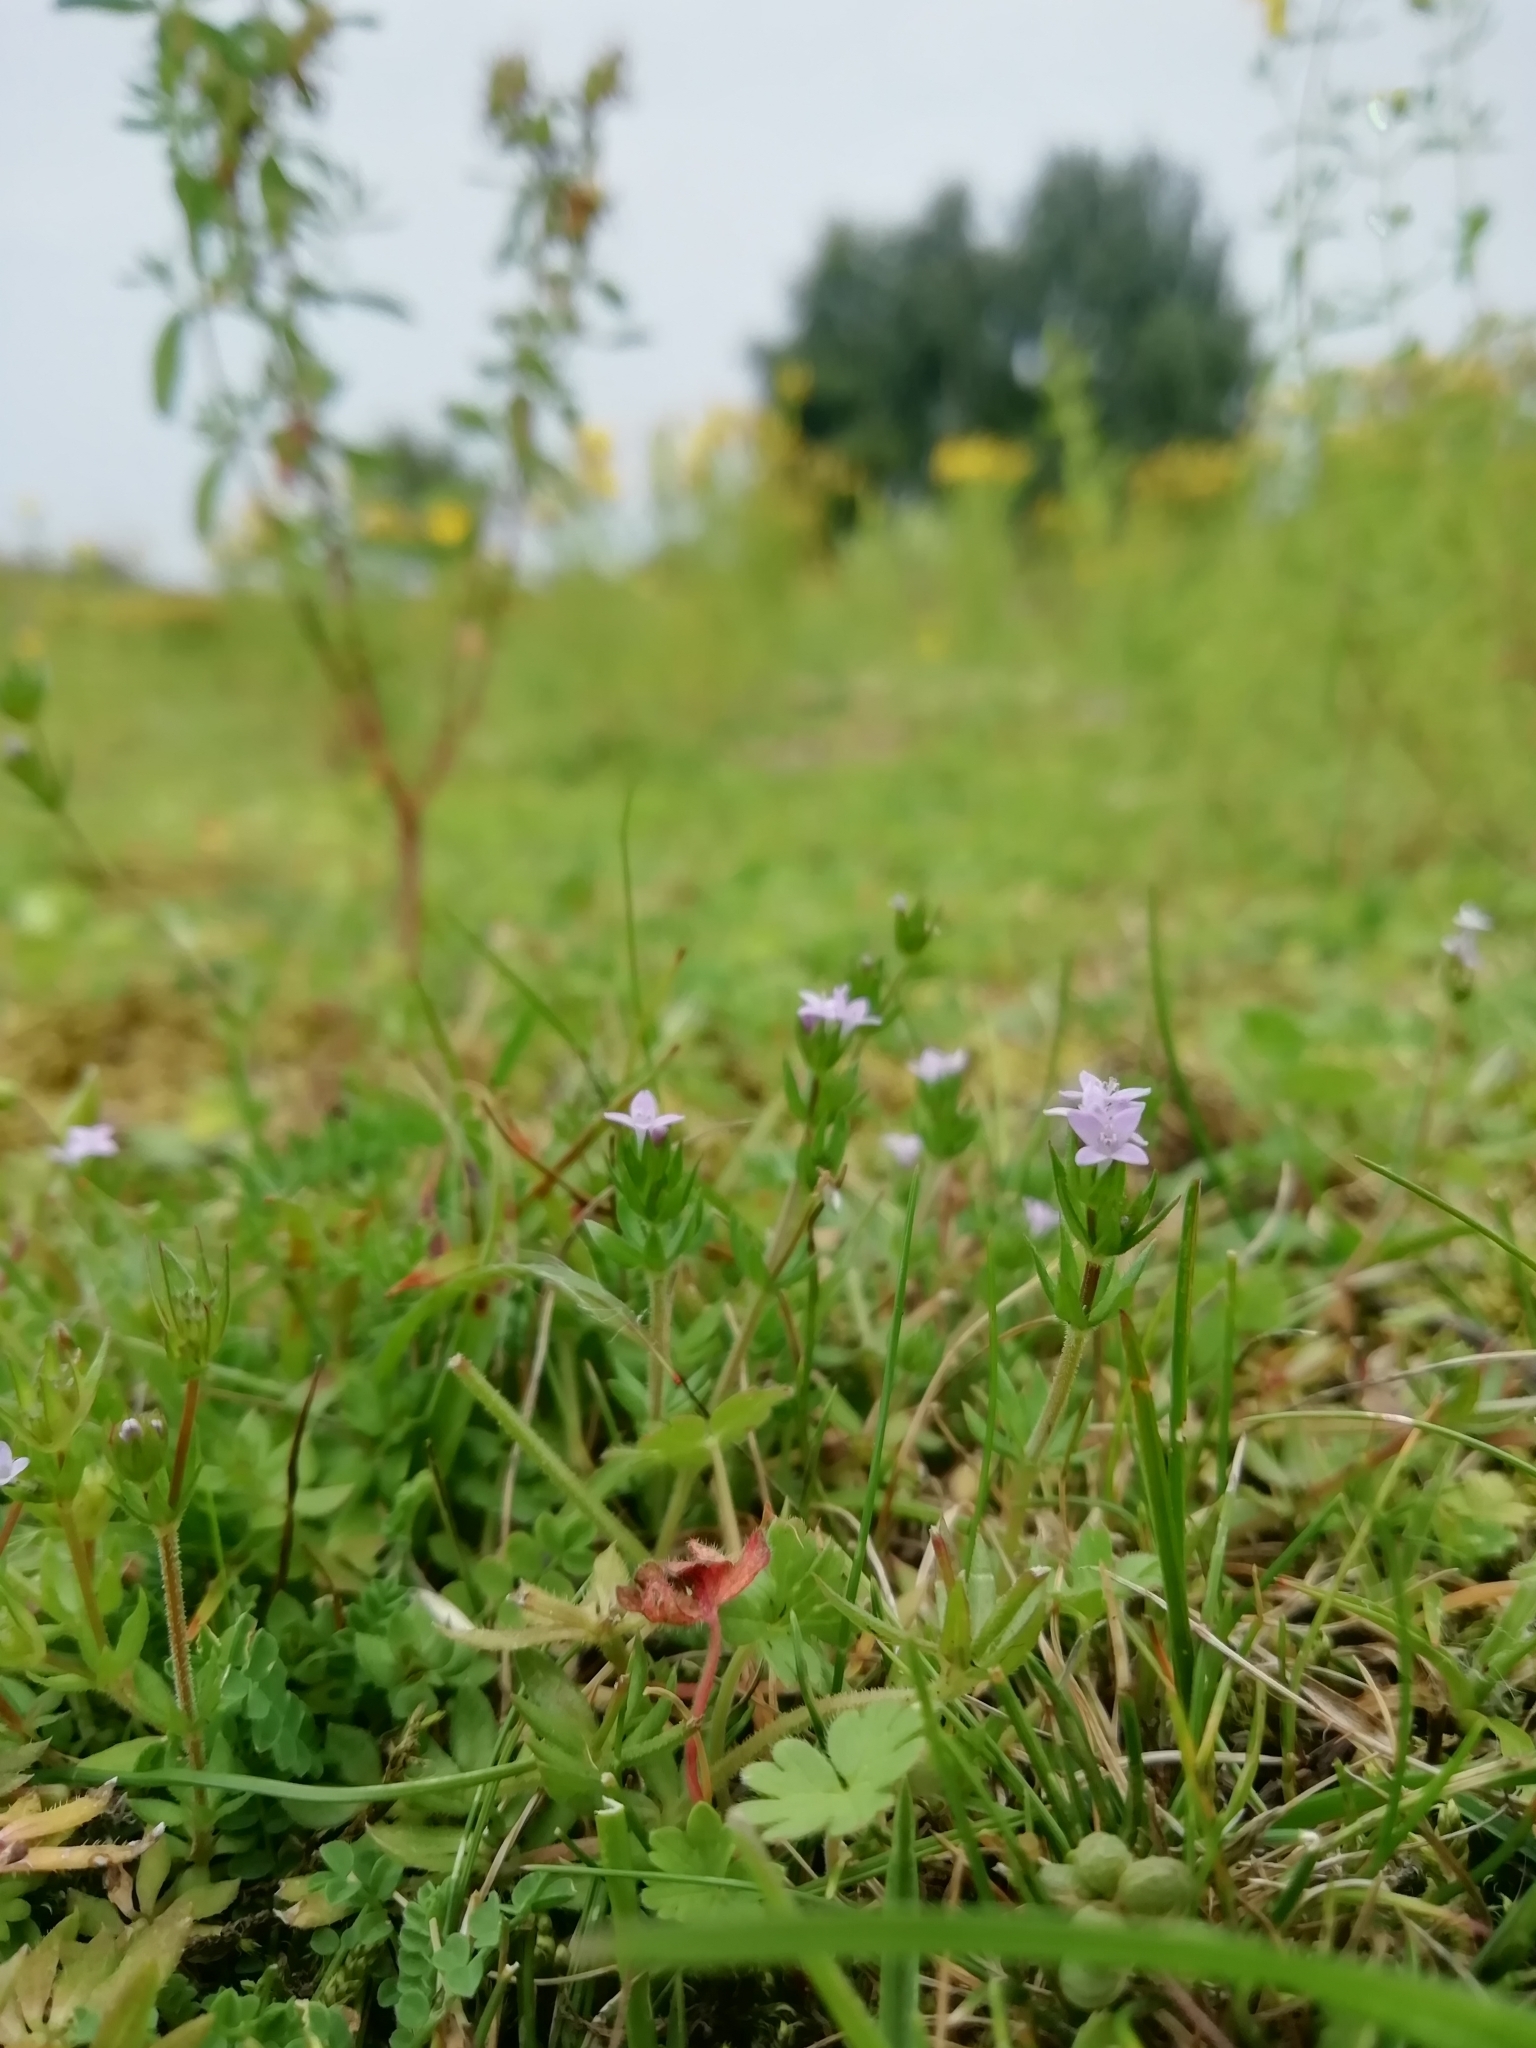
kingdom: Plantae
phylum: Tracheophyta
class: Magnoliopsida
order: Gentianales
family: Rubiaceae
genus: Sherardia
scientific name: Sherardia arvensis
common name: Field madder
